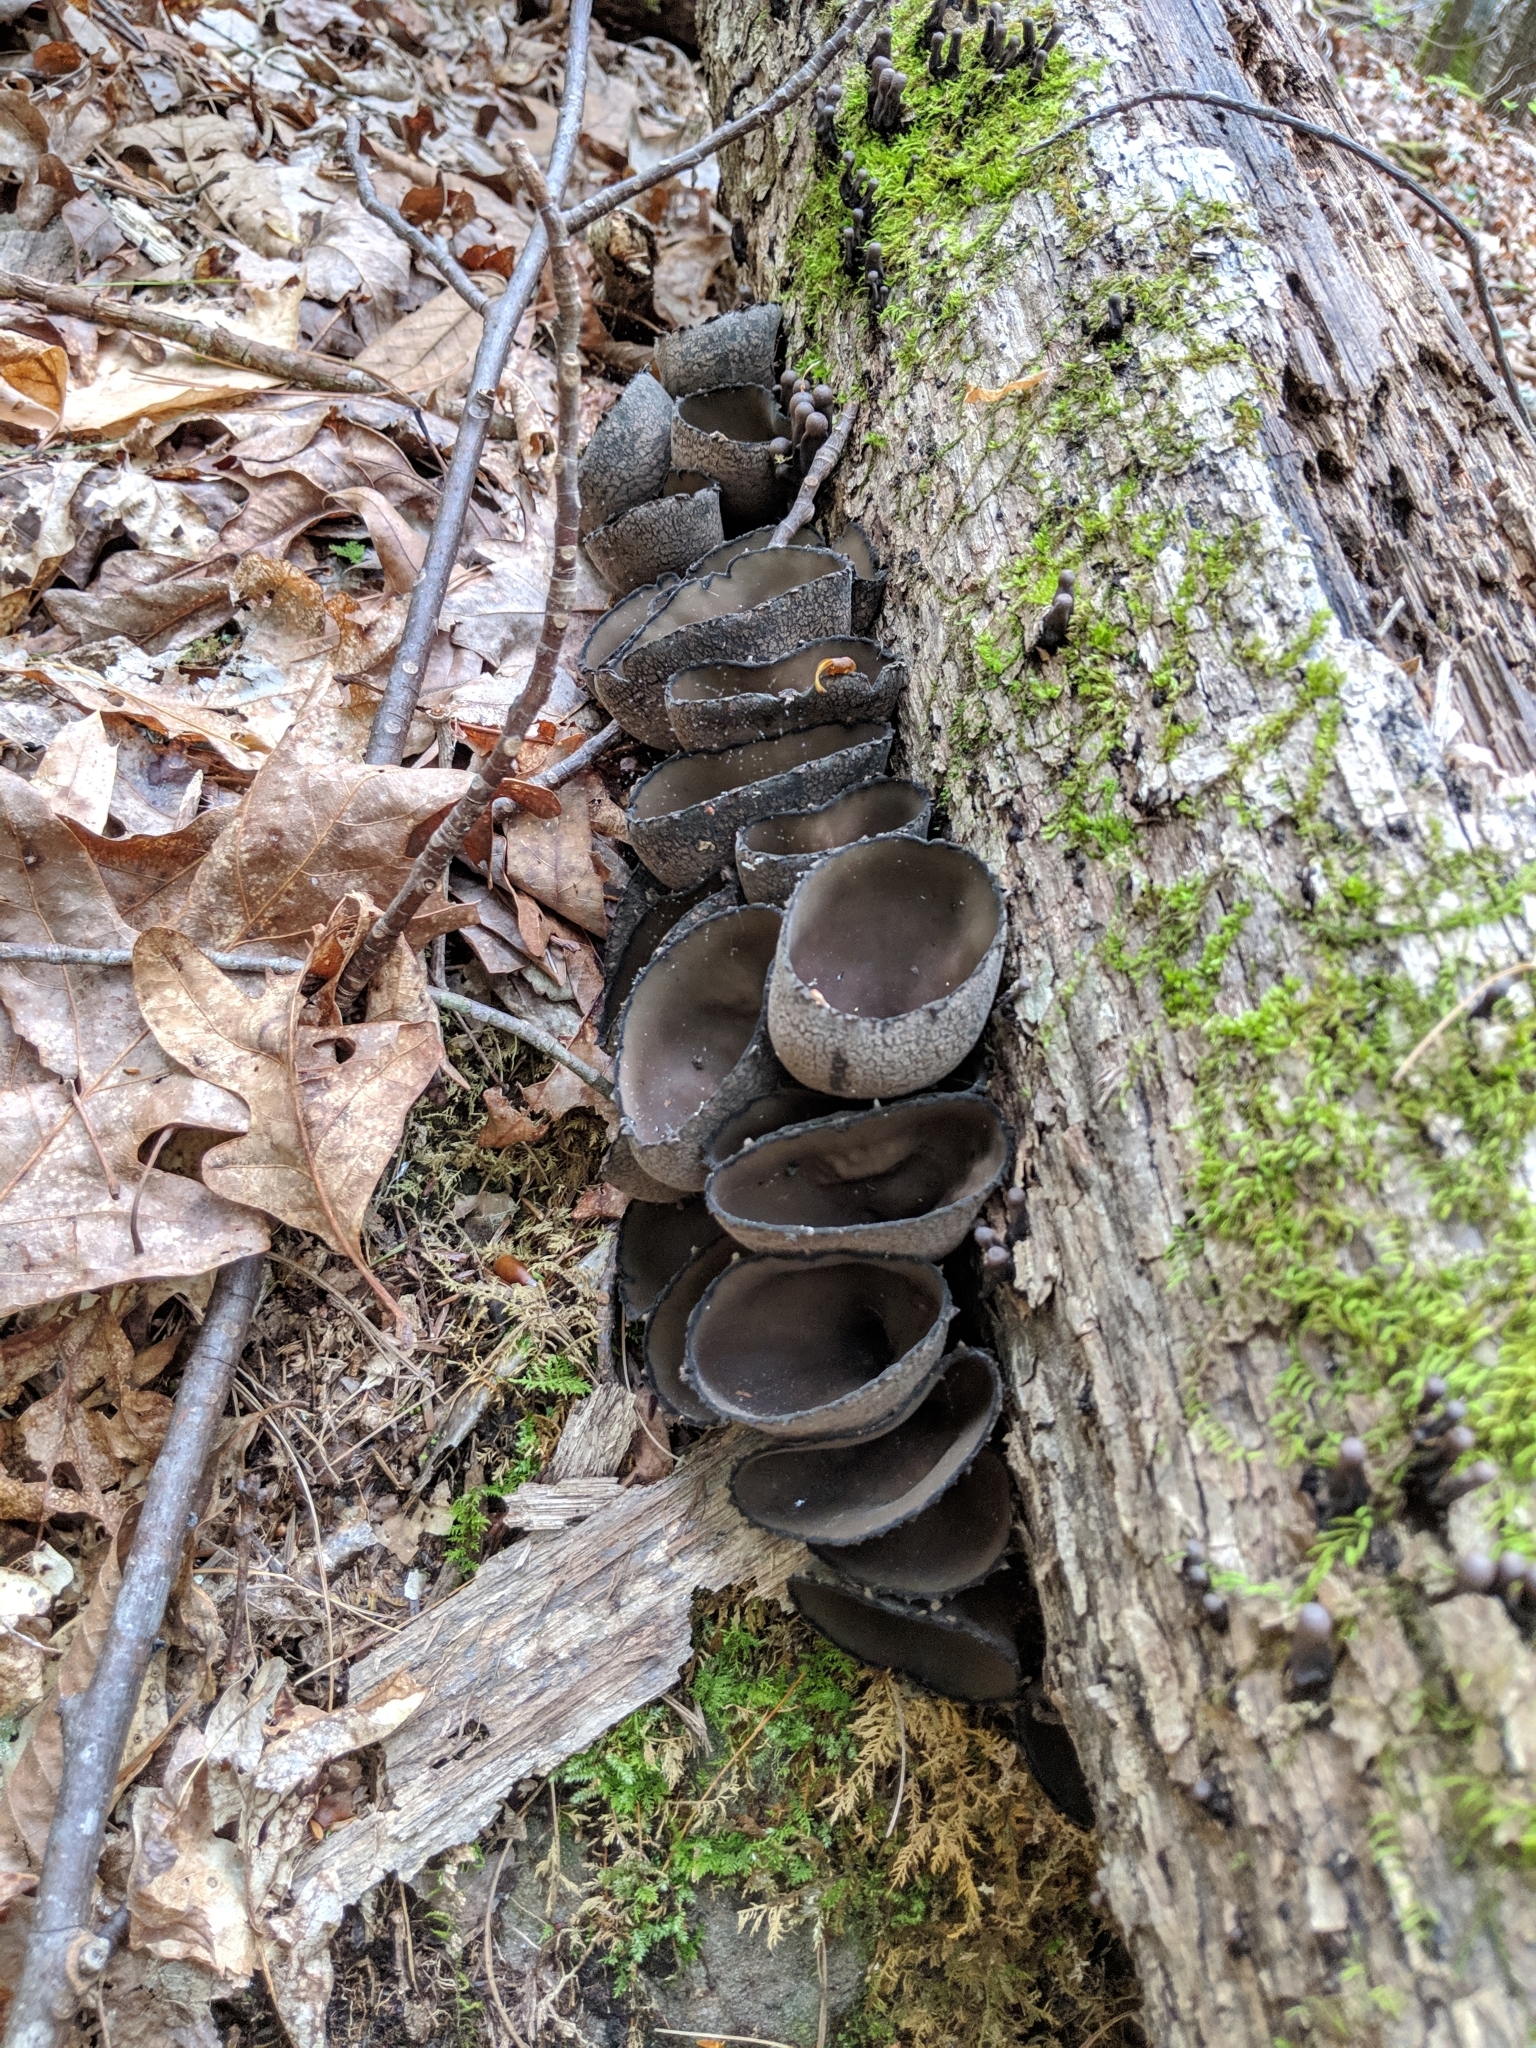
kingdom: Fungi
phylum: Ascomycota
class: Pezizomycetes
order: Pezizales
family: Sarcosomataceae
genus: Urnula
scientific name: Urnula craterium
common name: Devil's urn
